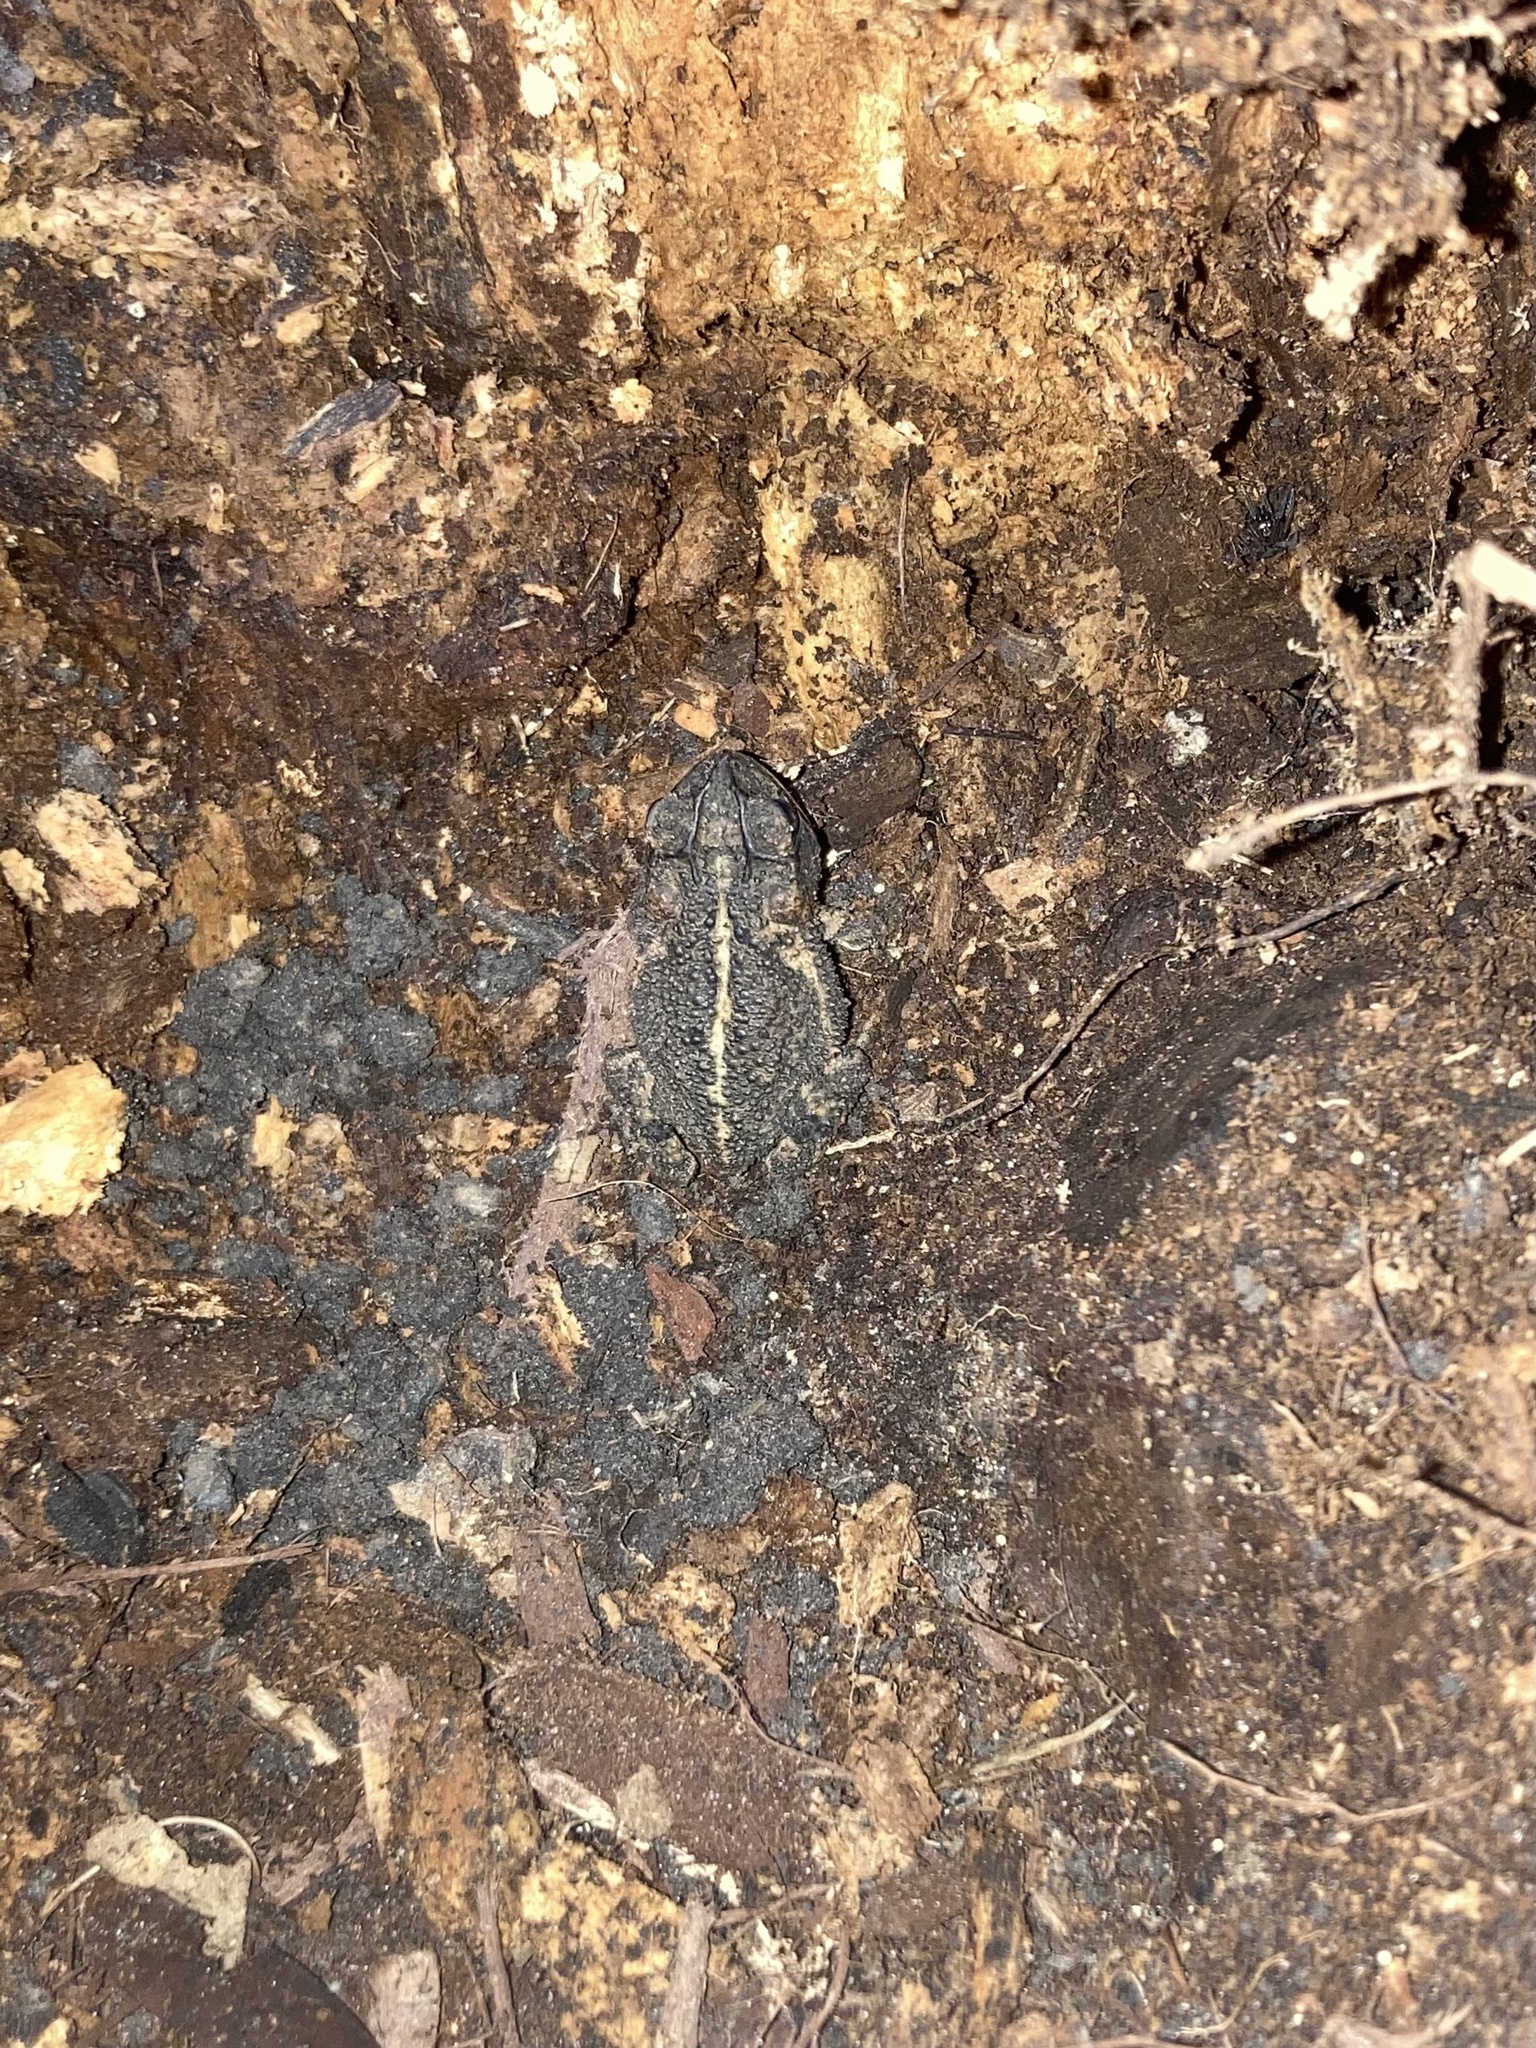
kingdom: Animalia
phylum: Chordata
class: Amphibia
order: Anura
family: Bufonidae
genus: Incilius
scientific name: Incilius nebulifer
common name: Gulf coast toad
